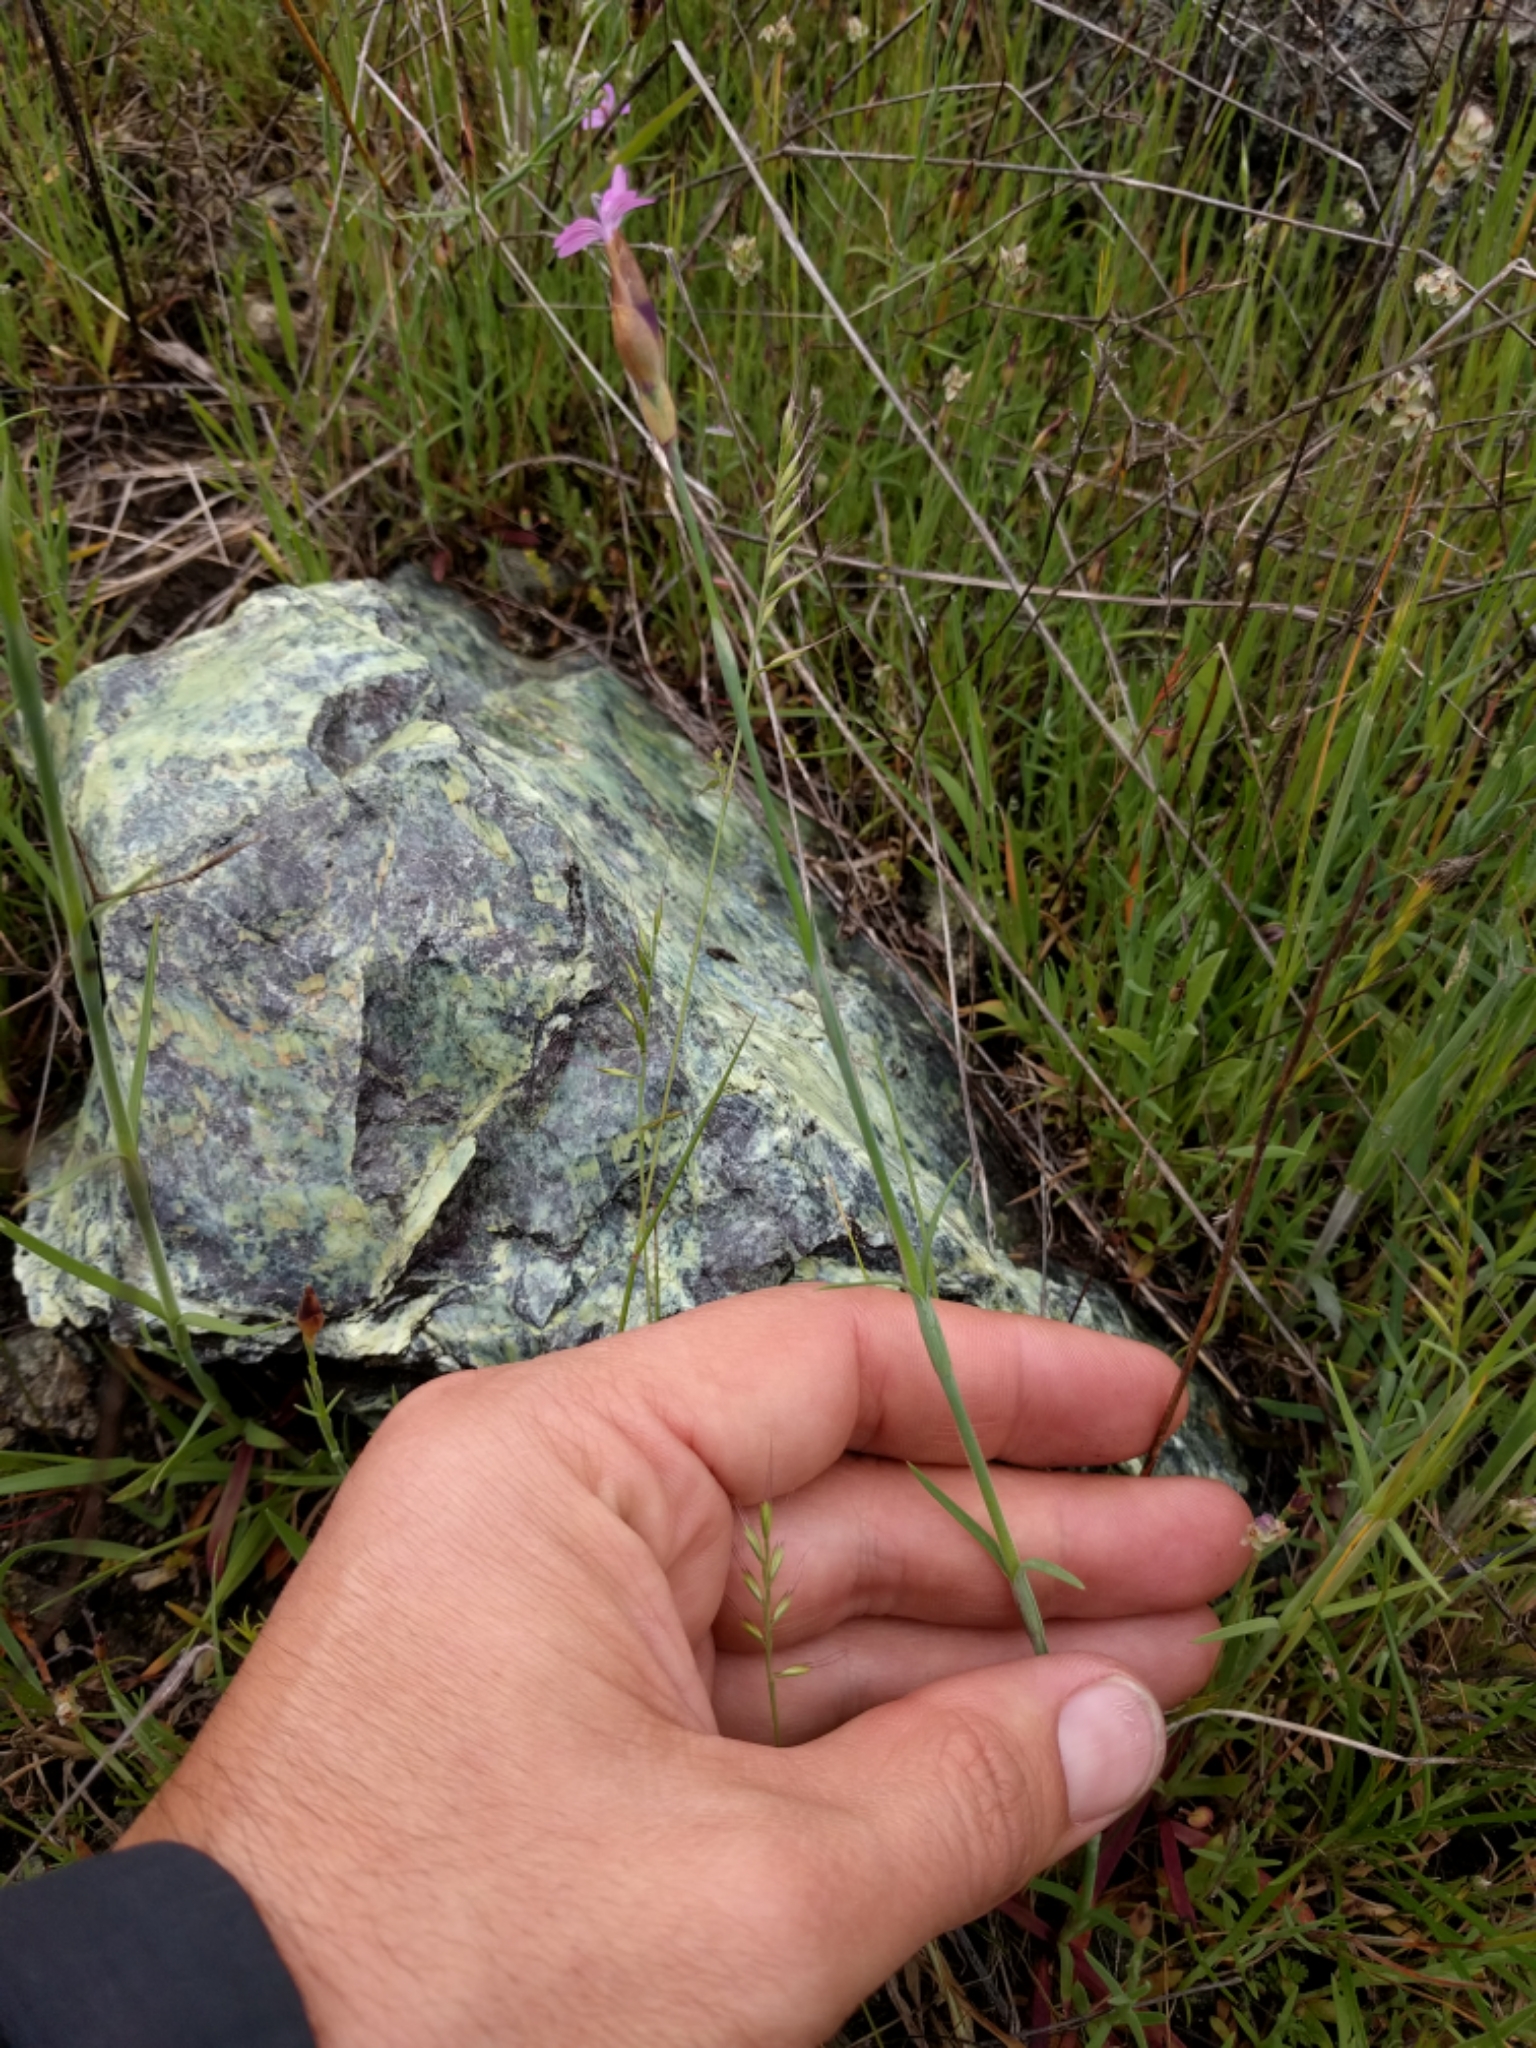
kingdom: Plantae
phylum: Tracheophyta
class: Magnoliopsida
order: Caryophyllales
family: Caryophyllaceae
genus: Petrorhagia
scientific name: Petrorhagia dubia
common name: Hairypink
